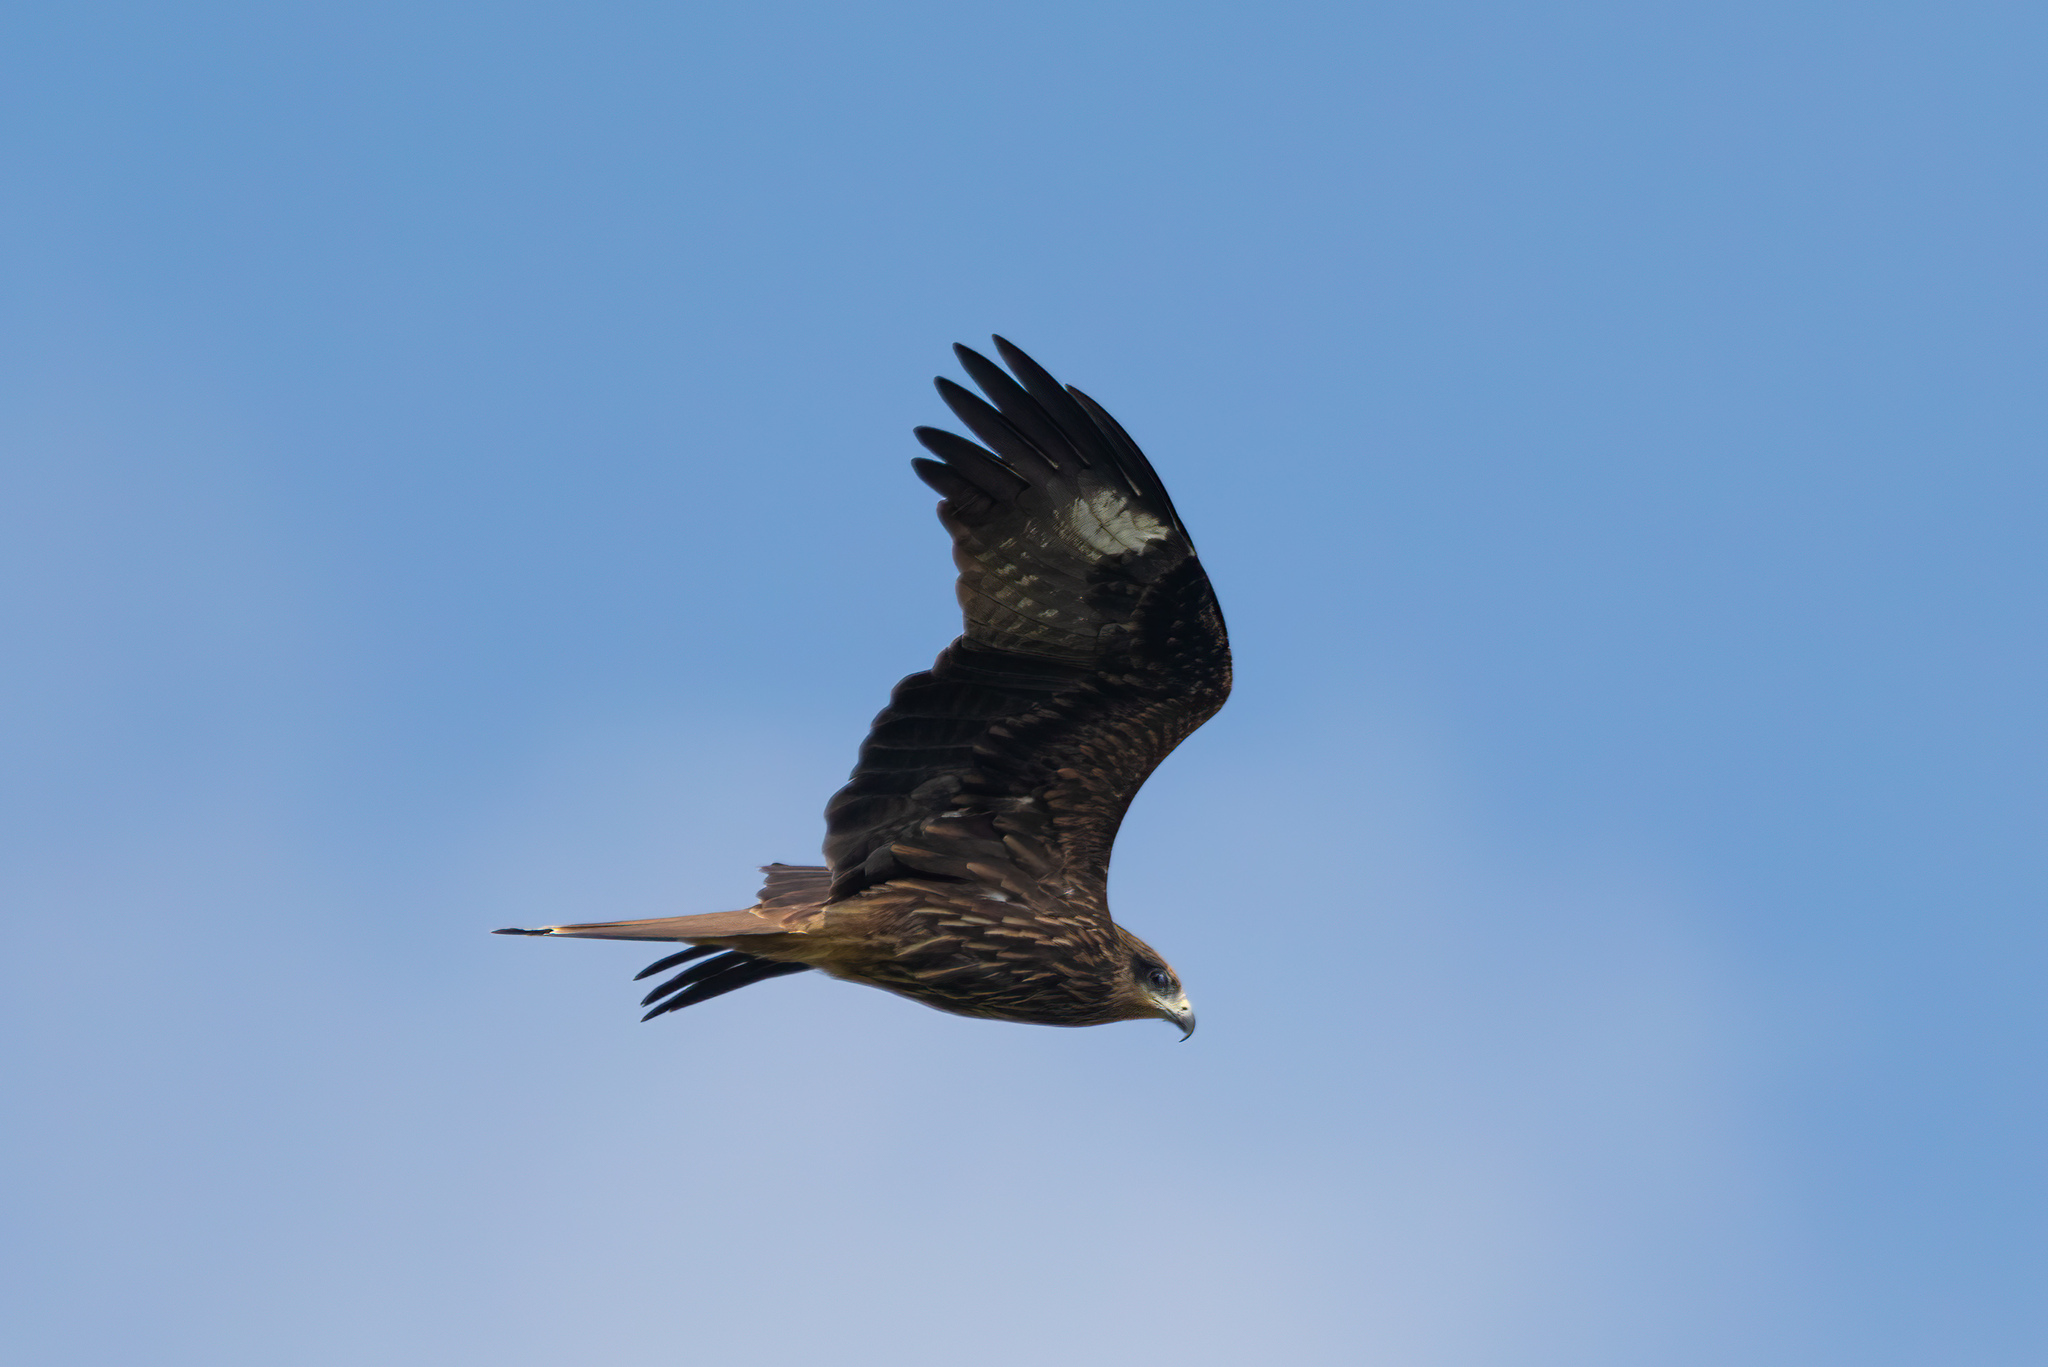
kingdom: Animalia
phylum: Chordata
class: Aves
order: Accipitriformes
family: Accipitridae
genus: Milvus
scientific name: Milvus migrans
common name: Black kite
